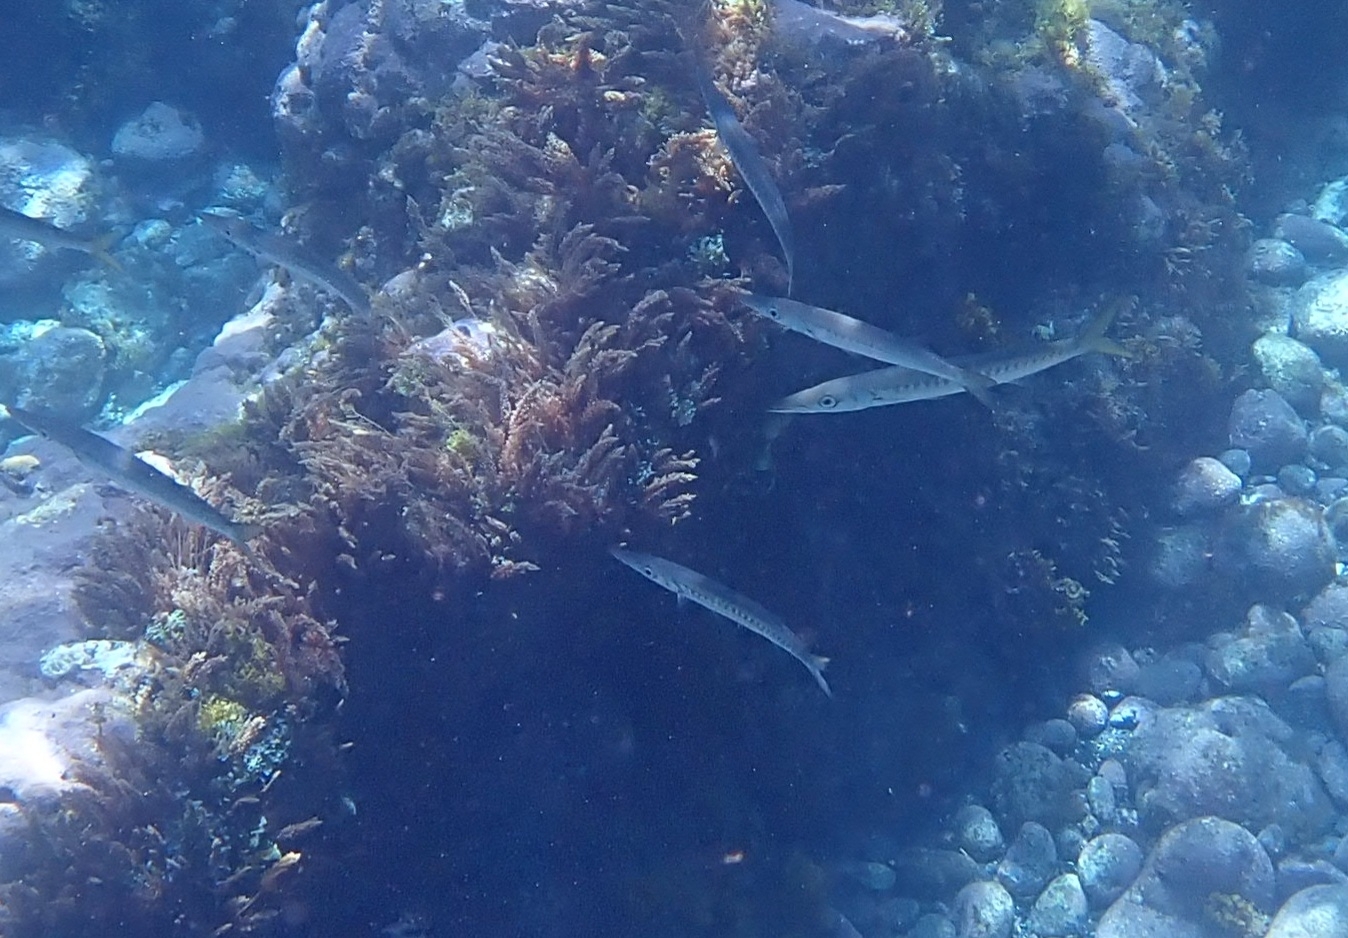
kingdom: Animalia
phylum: Chordata
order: Perciformes
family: Sphyraenidae
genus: Sphyraena
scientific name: Sphyraena viridensis
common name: Yellowmouth barracuda
